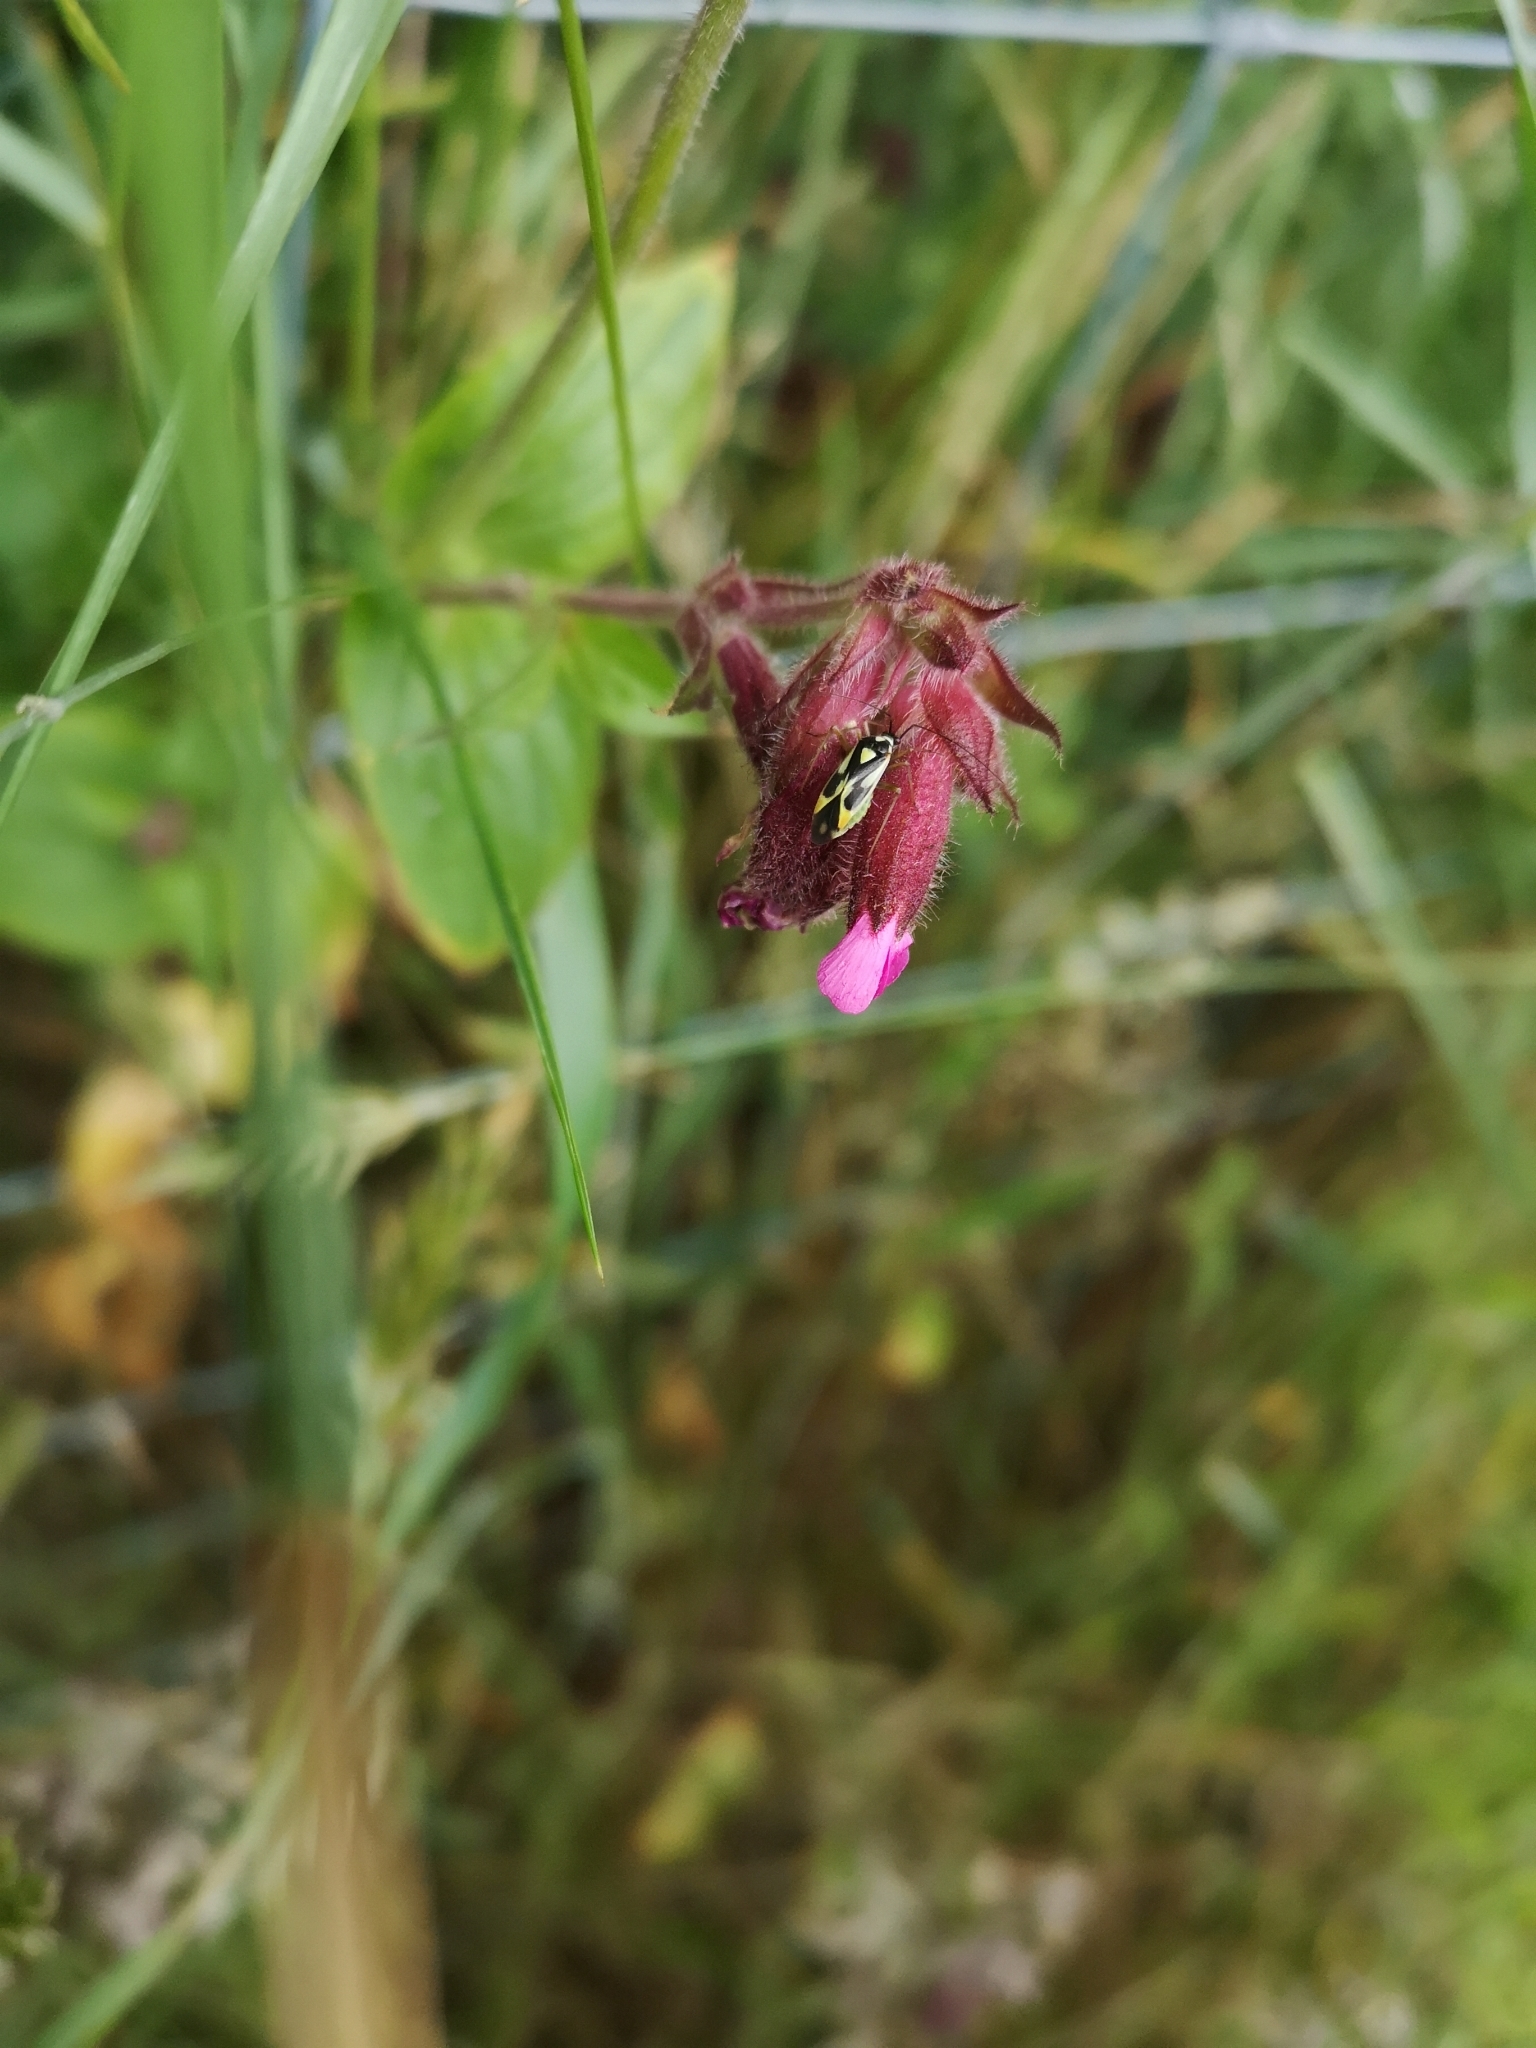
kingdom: Animalia
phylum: Arthropoda
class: Insecta
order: Hemiptera
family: Miridae
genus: Grypocoris
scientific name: Grypocoris stysi
